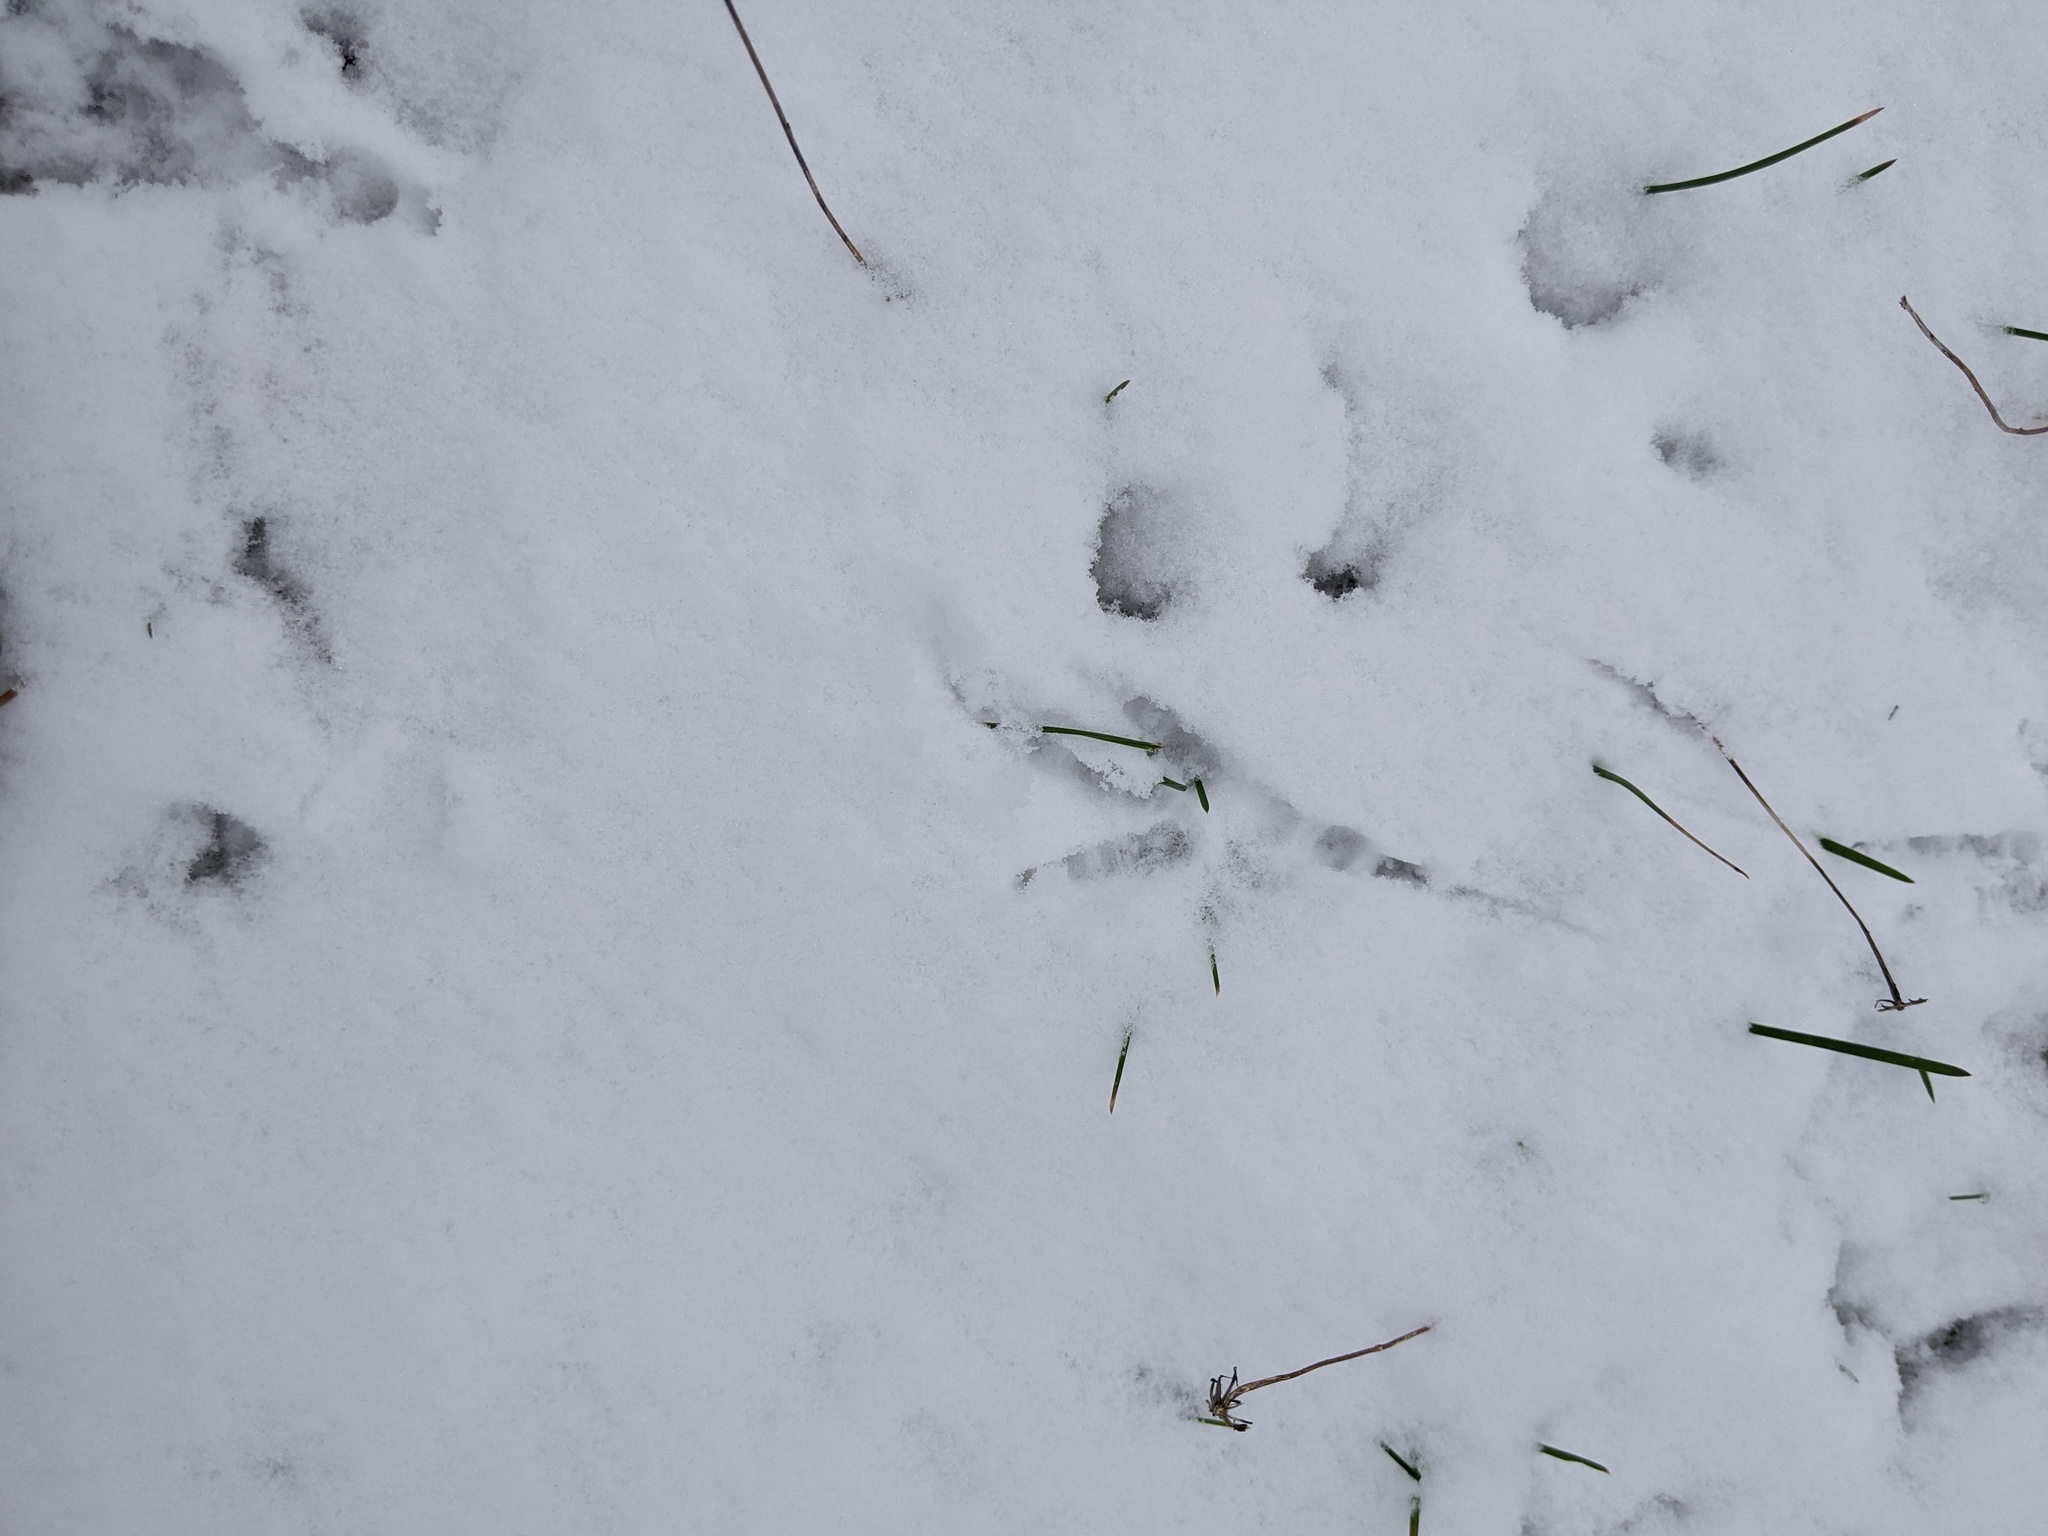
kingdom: Animalia
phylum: Chordata
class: Aves
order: Passeriformes
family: Corvidae
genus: Corvus
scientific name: Corvus brachyrhynchos
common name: American crow
